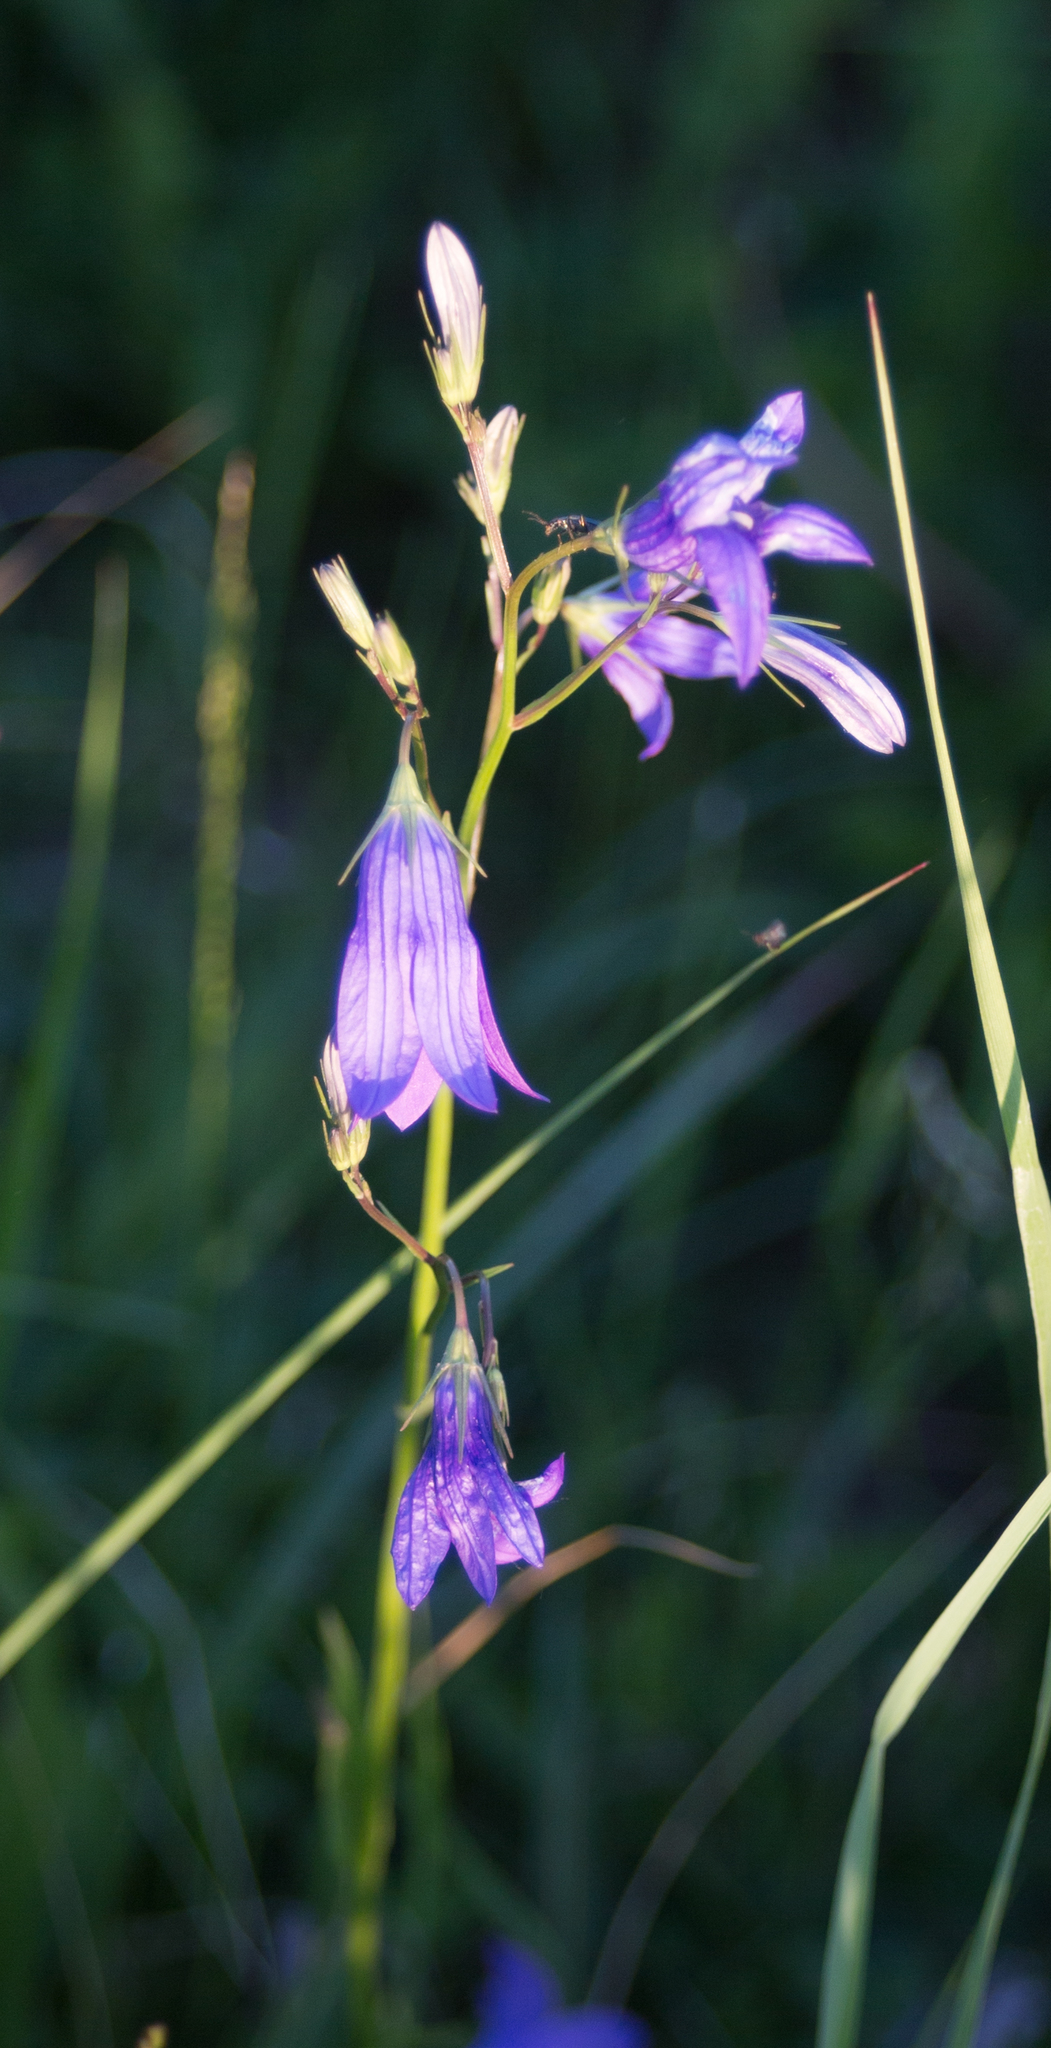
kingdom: Plantae
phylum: Tracheophyta
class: Magnoliopsida
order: Asterales
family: Campanulaceae
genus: Campanula
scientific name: Campanula patula
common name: Spreading bellflower
